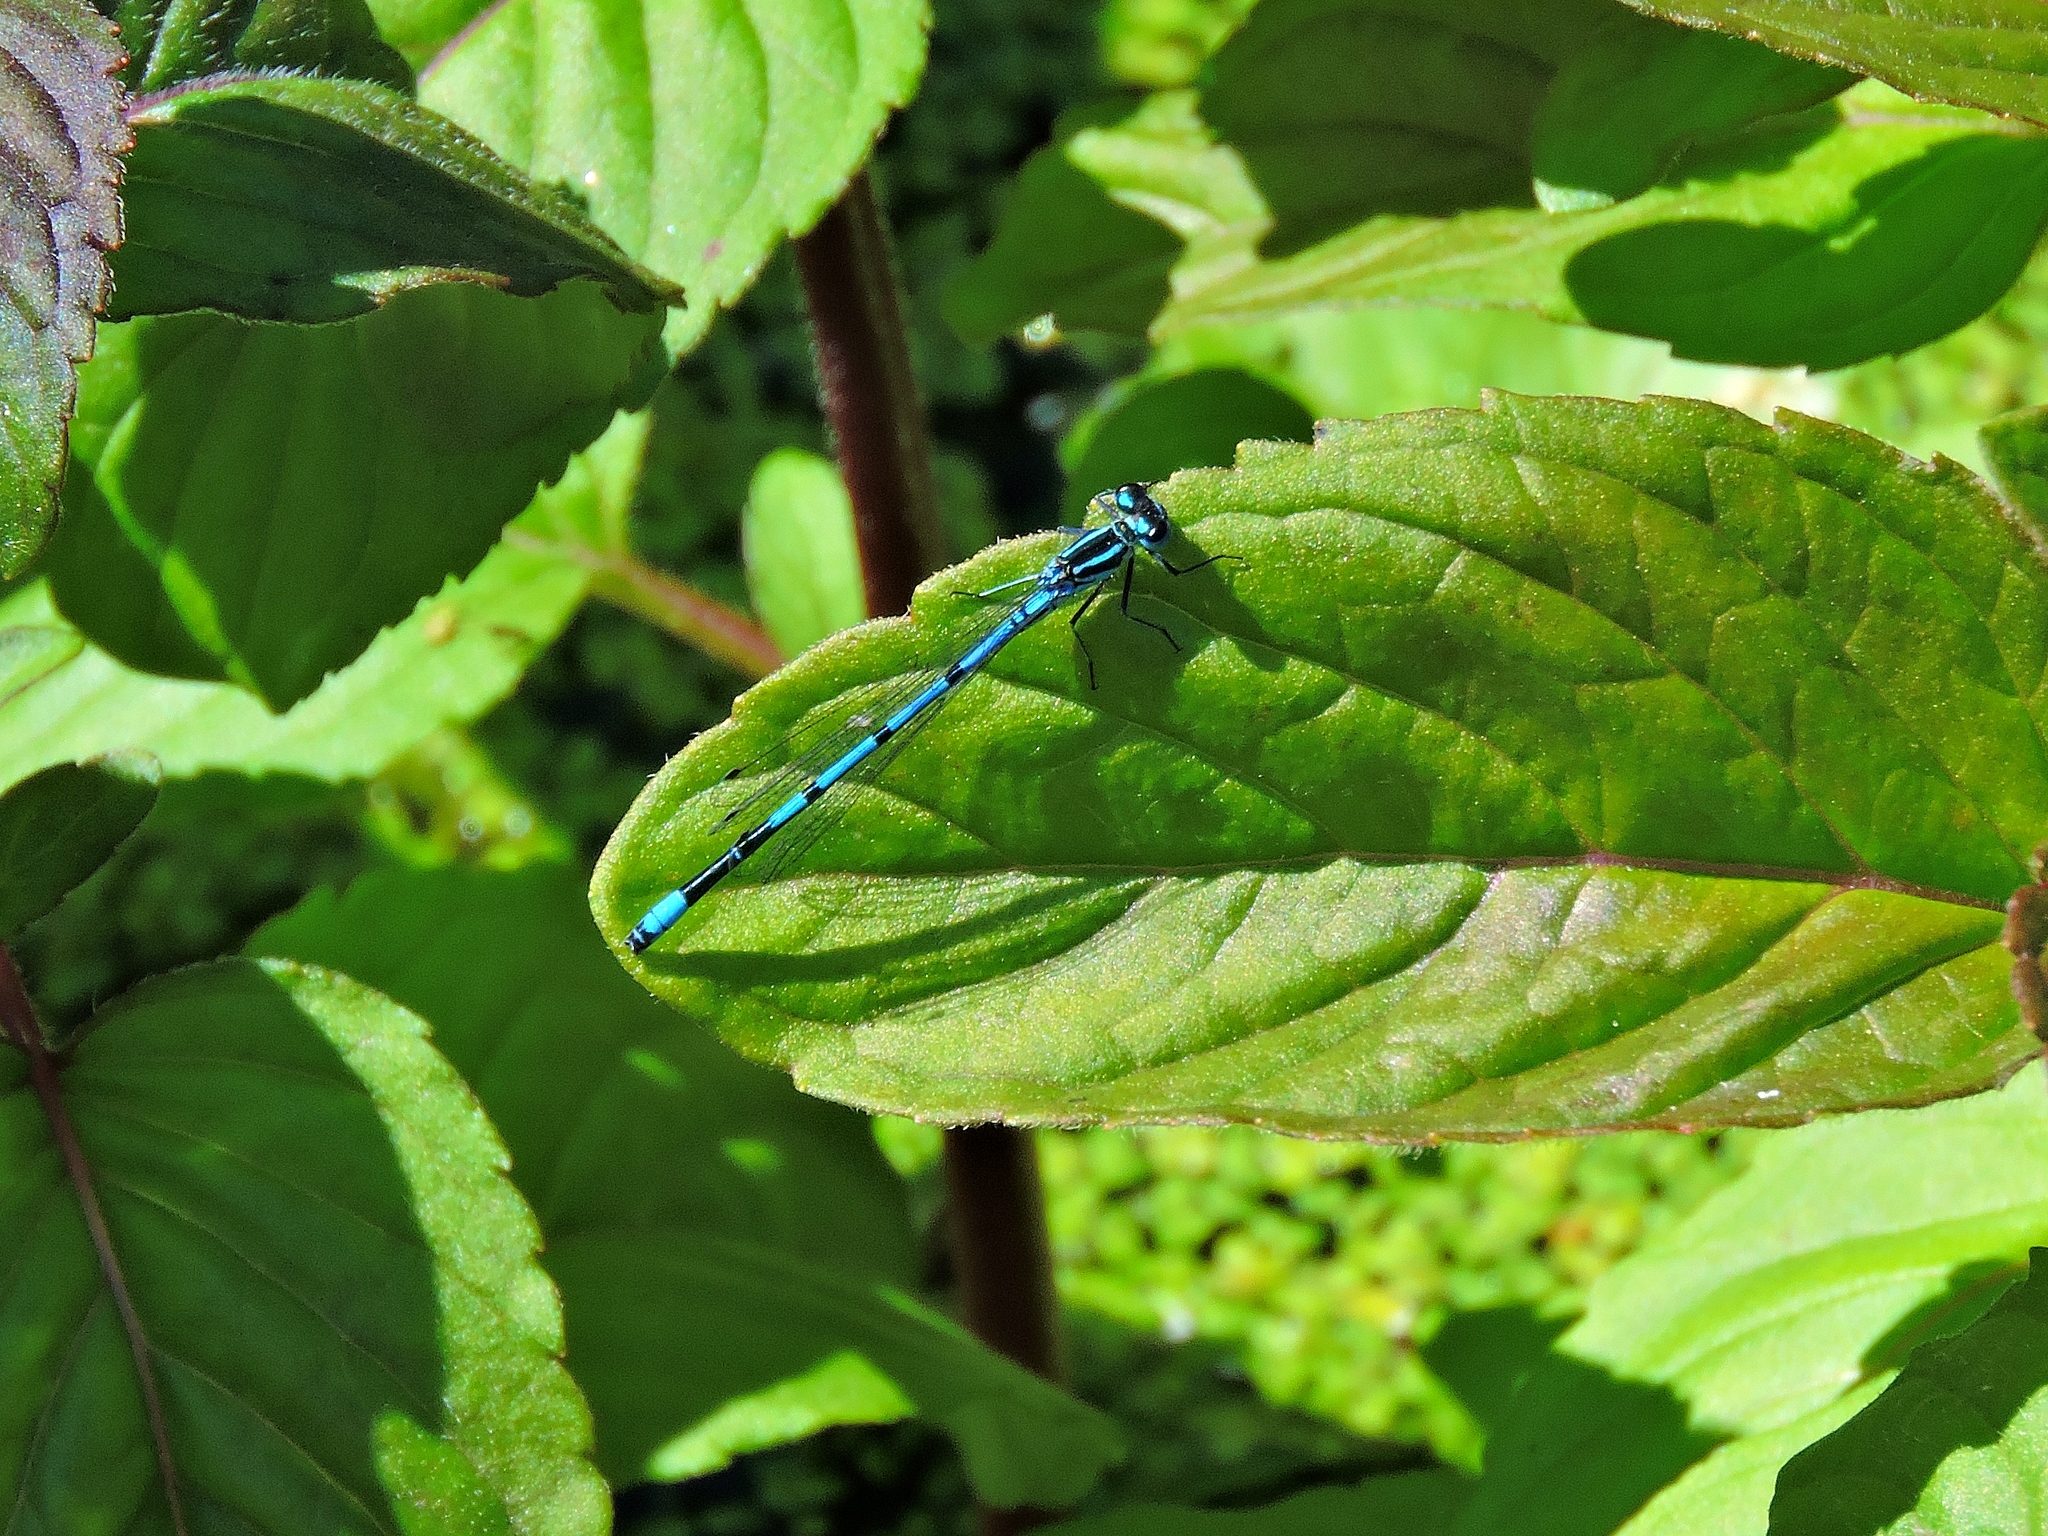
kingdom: Animalia
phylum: Arthropoda
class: Insecta
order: Odonata
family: Coenagrionidae
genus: Coenagrion
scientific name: Coenagrion puella
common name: Azure damselfly
